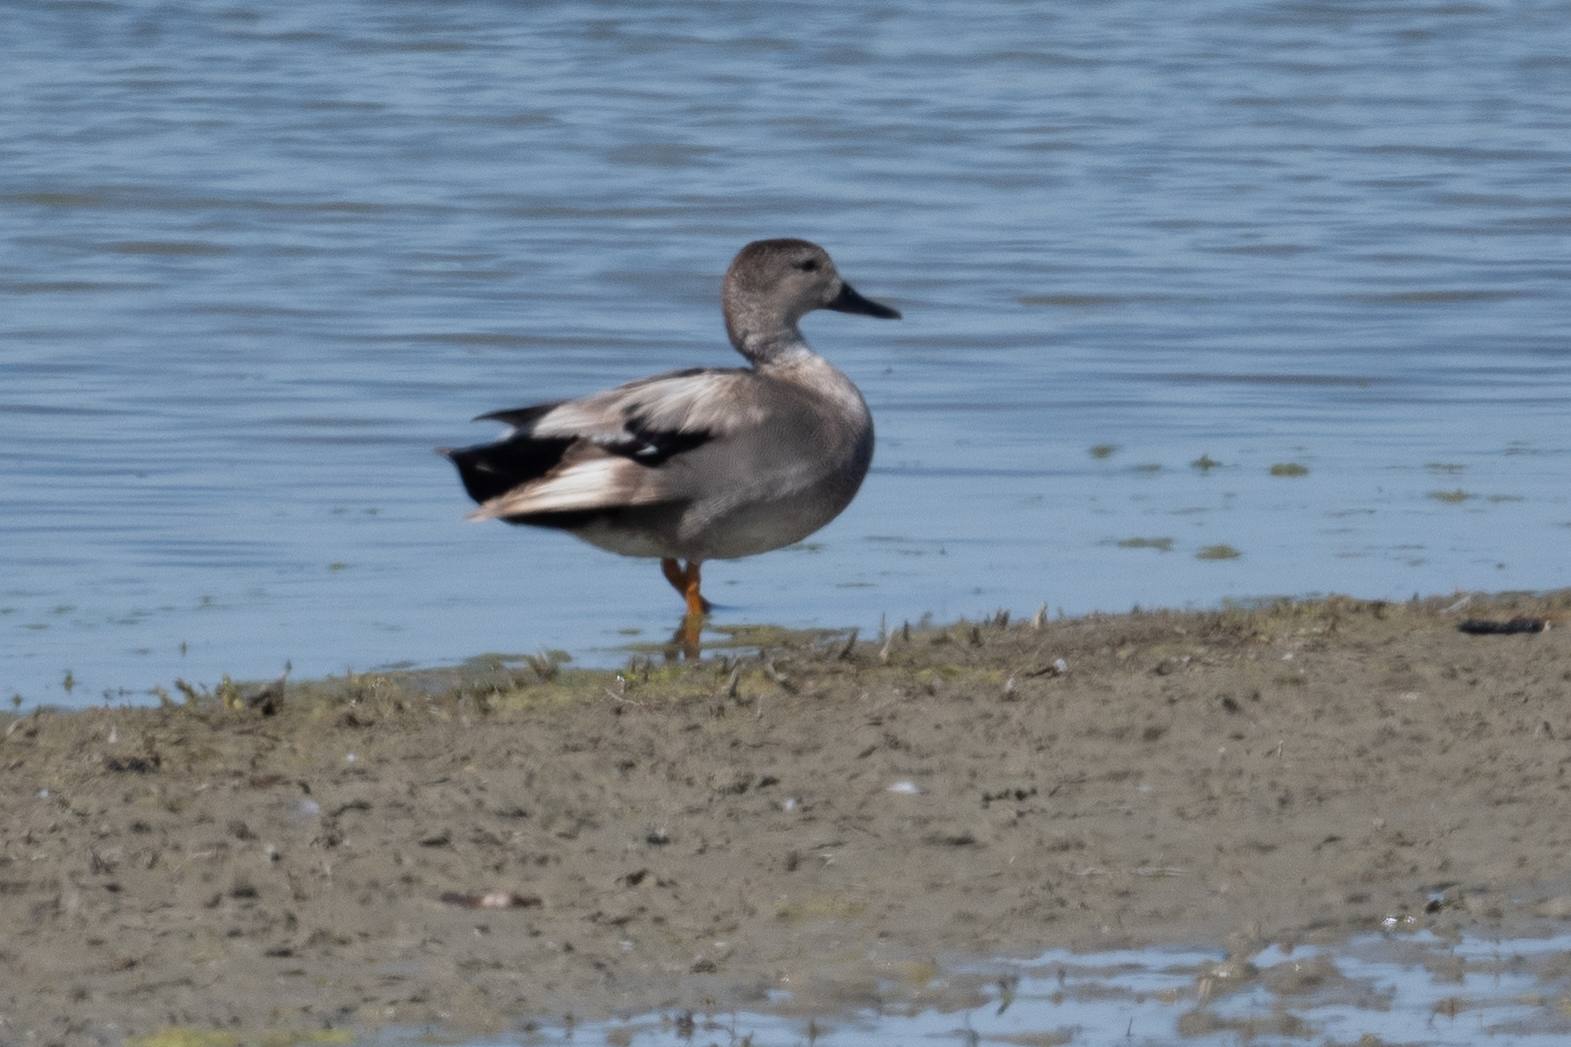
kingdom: Animalia
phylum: Chordata
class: Aves
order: Anseriformes
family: Anatidae
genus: Mareca
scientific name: Mareca strepera
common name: Gadwall
